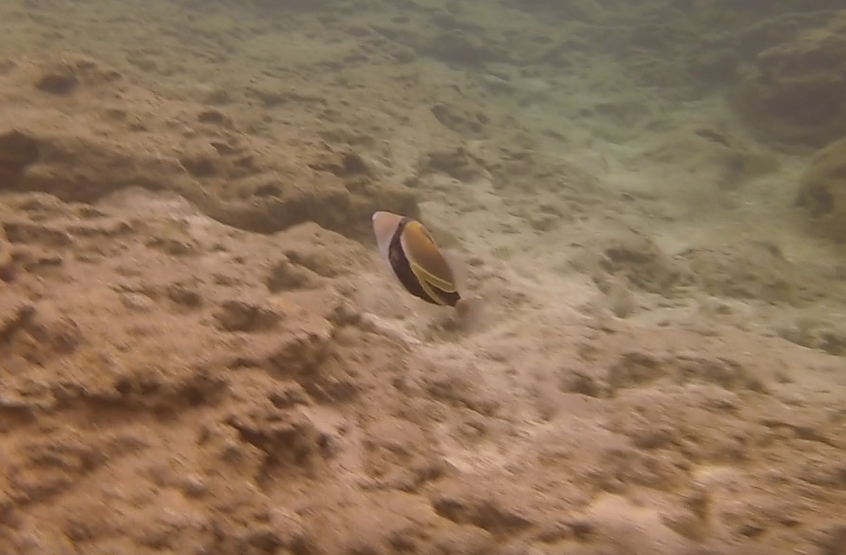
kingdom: Animalia
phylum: Chordata
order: Tetraodontiformes
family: Balistidae
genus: Rhinecanthus
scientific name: Rhinecanthus rectangulus
